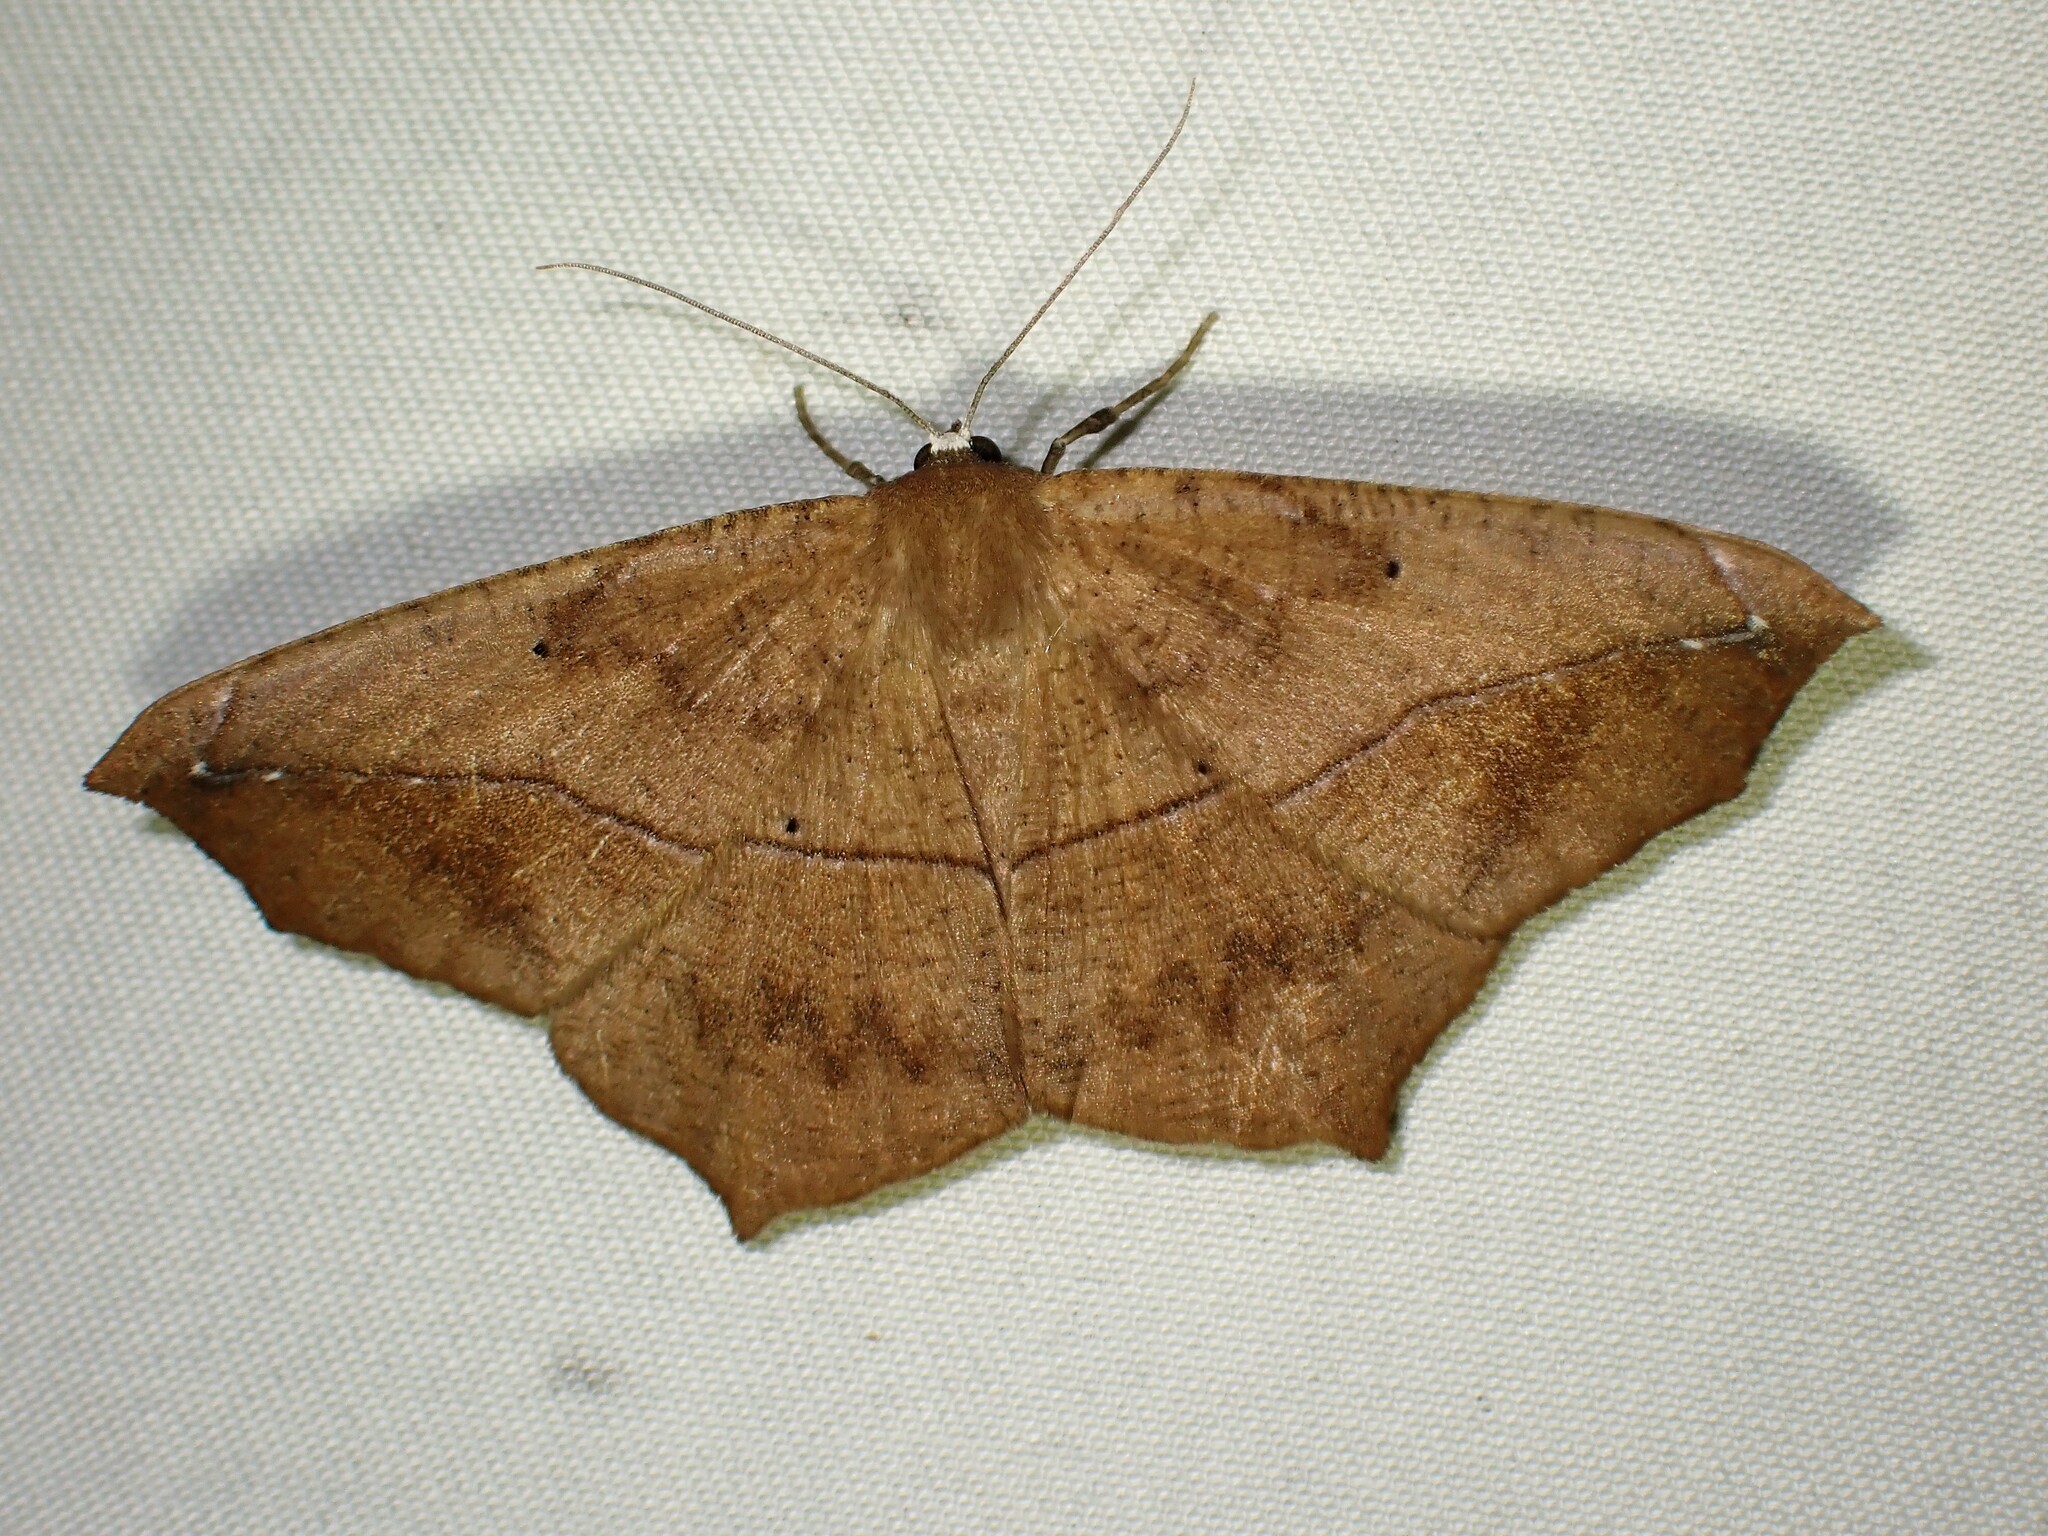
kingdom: Animalia
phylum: Arthropoda
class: Insecta
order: Lepidoptera
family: Geometridae
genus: Prochoerodes
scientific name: Prochoerodes lineola
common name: Large maple spanworm
